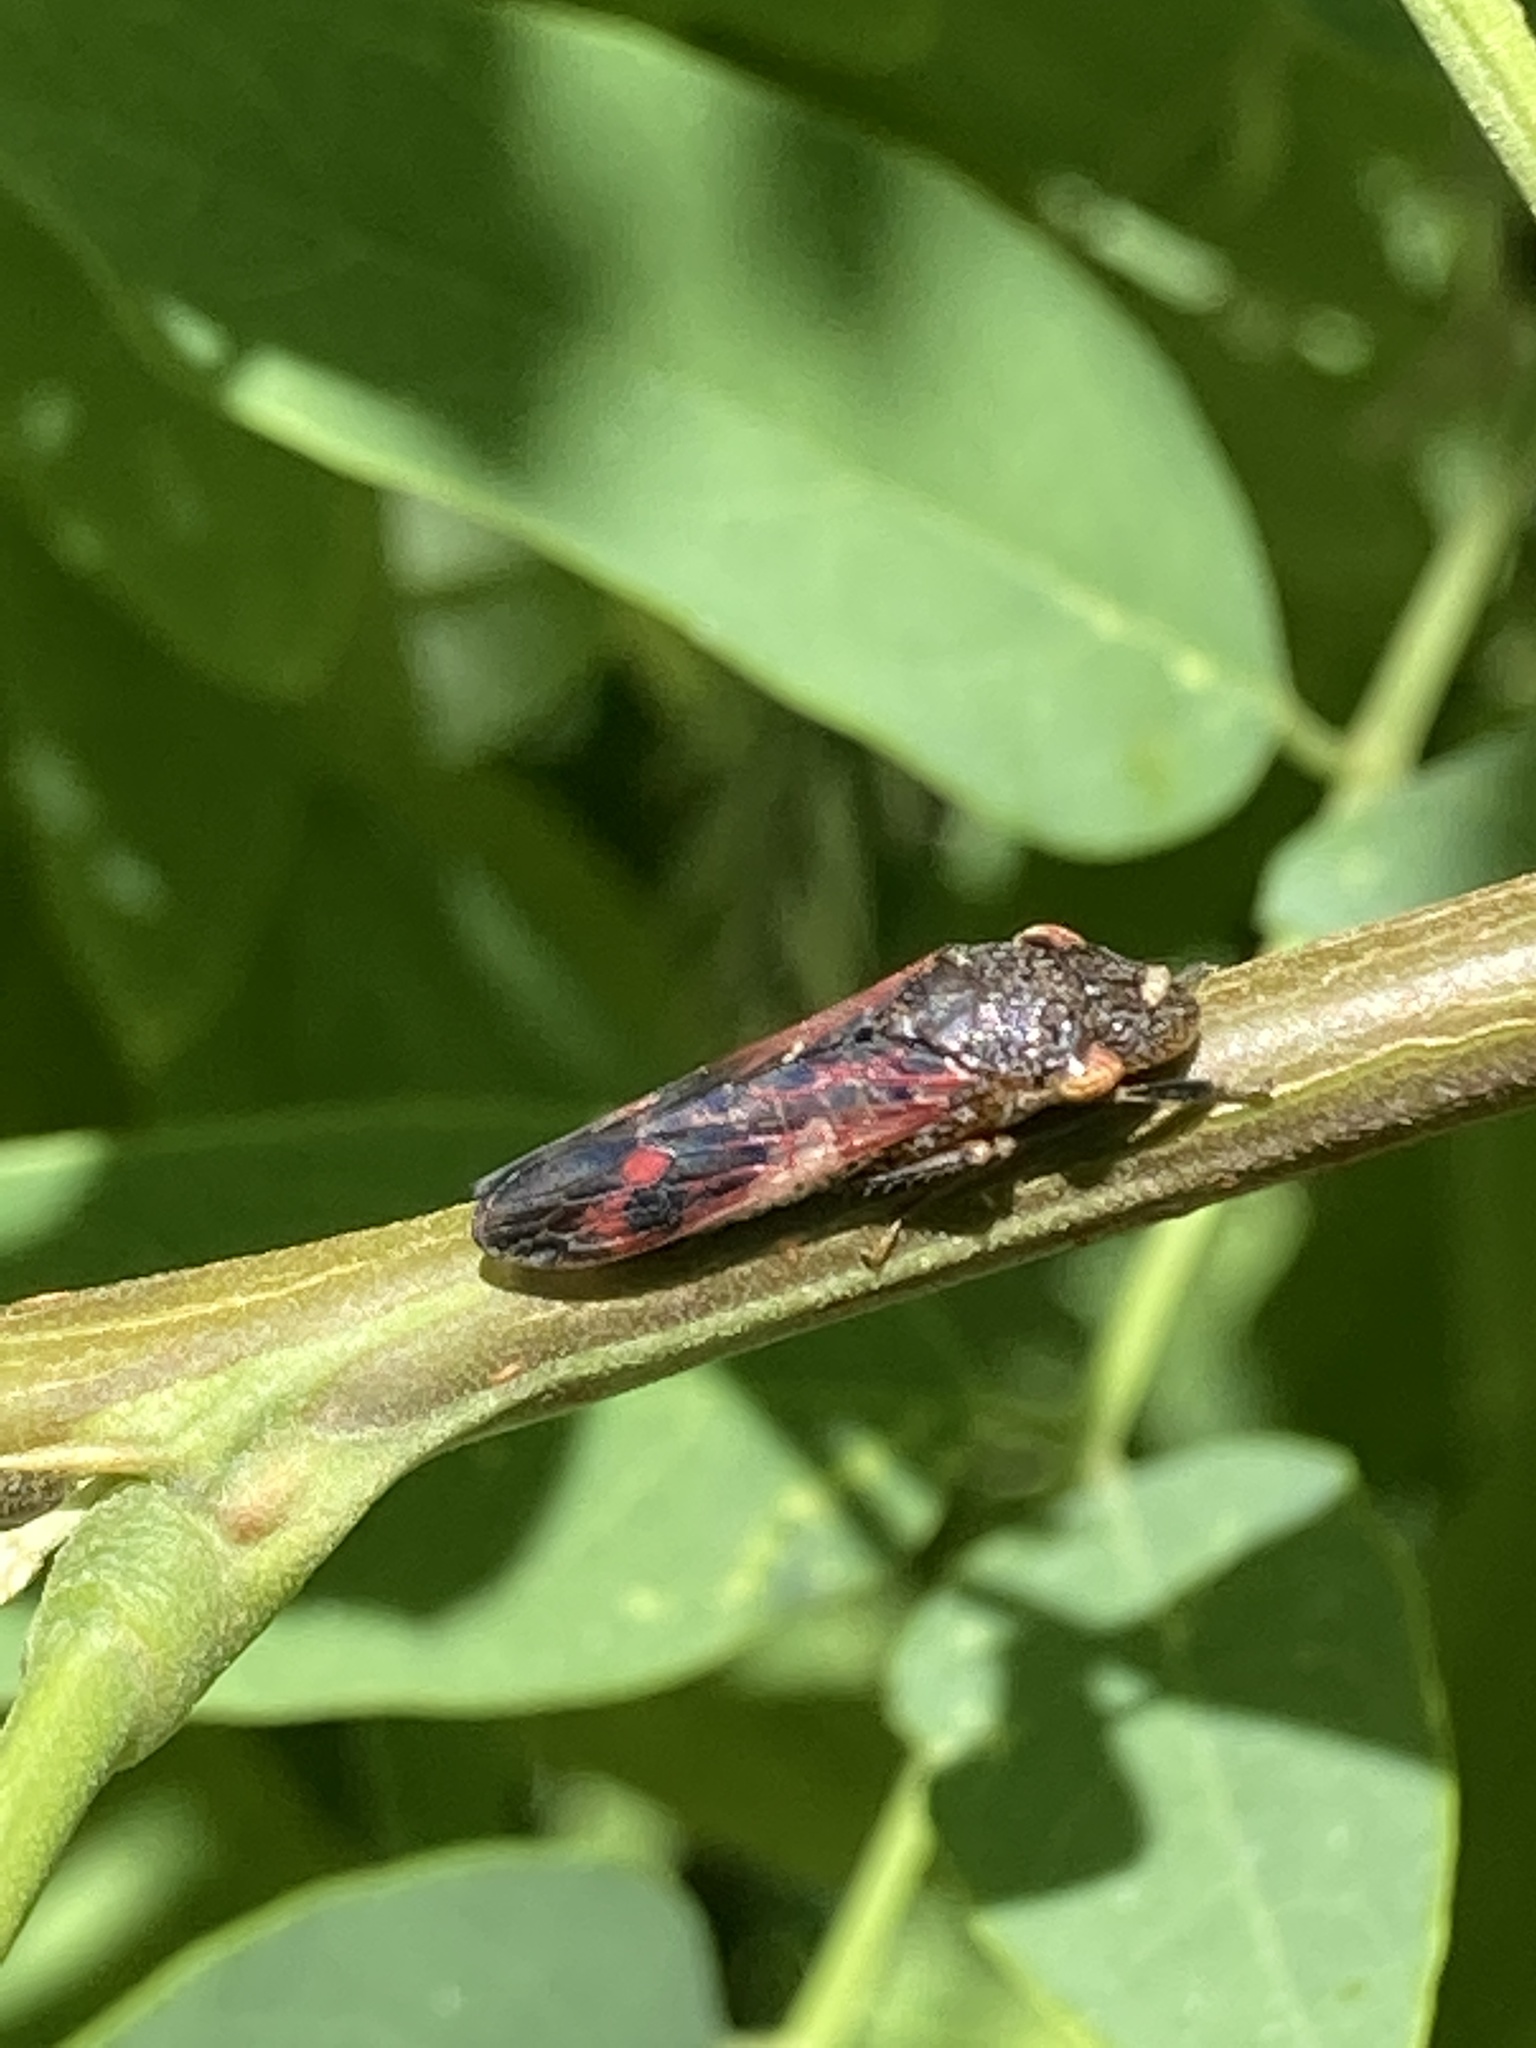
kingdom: Animalia
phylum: Arthropoda
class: Insecta
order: Hemiptera
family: Cicadellidae
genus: Homalodisca
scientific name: Homalodisca vitripennis
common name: Glassy-winged sharpshooter
